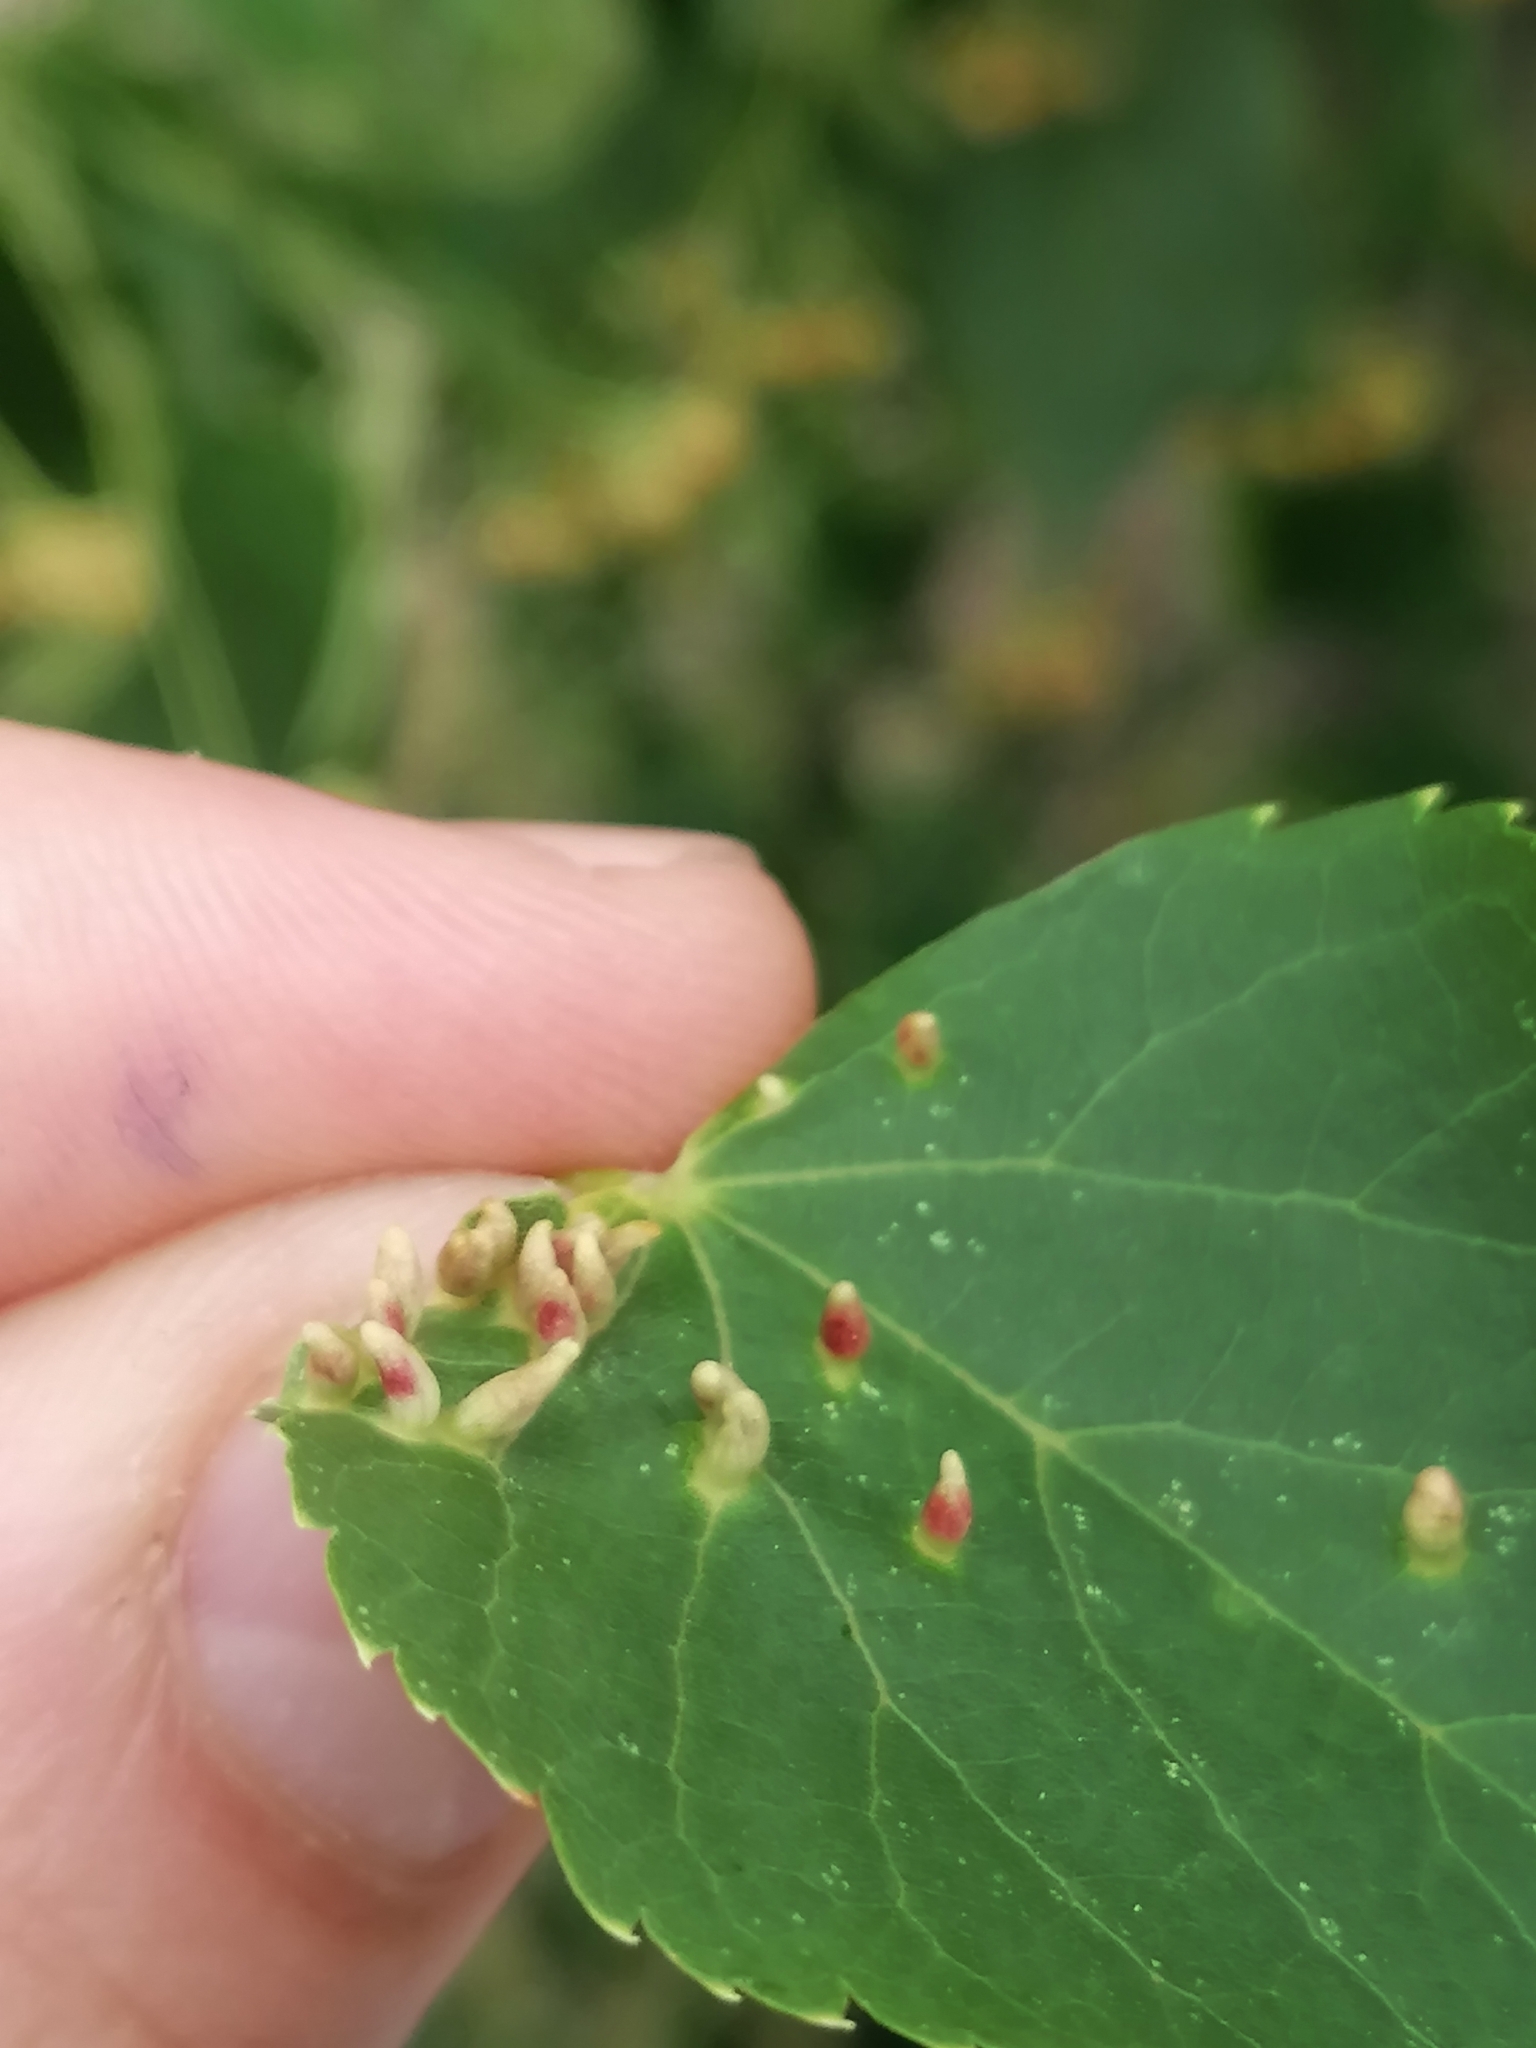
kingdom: Animalia
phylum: Arthropoda
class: Arachnida
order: Trombidiformes
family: Eriophyidae
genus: Eriophyes
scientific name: Eriophyes tiliae
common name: Red nail gall mite
